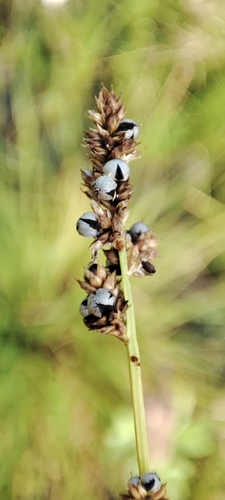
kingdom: Fungi
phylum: Basidiomycota
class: Ustilaginomycetes
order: Ustilaginales
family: Anthracoideaceae
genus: Anthracoidea
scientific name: Anthracoidea
